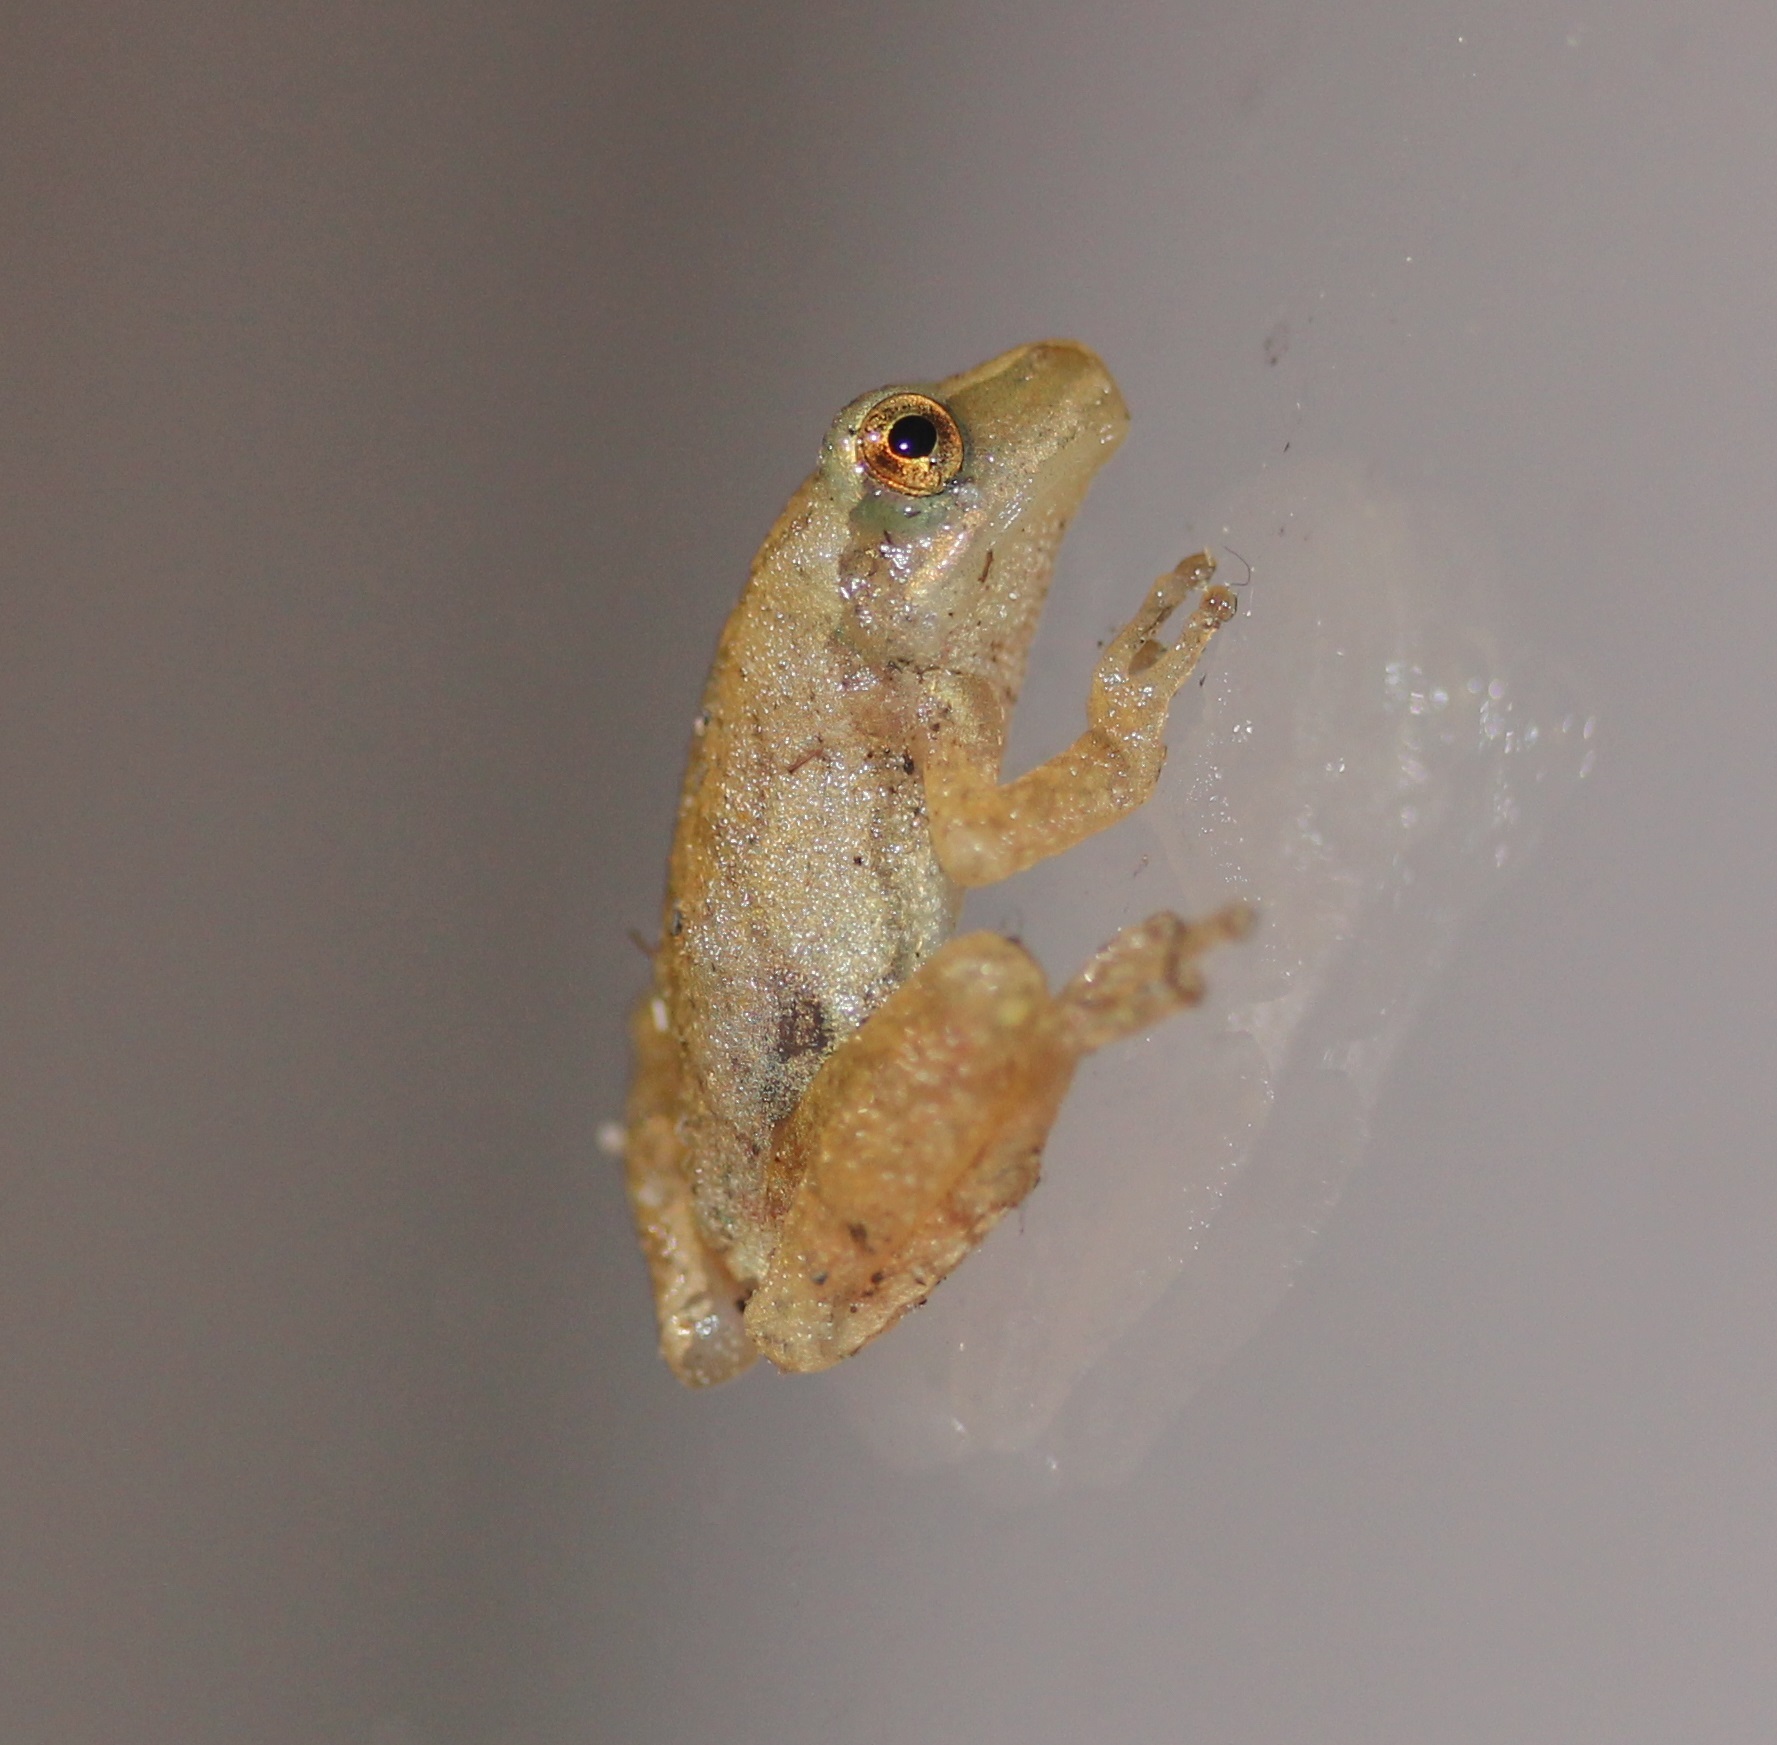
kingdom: Animalia
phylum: Chordata
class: Amphibia
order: Anura
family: Hylidae
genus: Pseudacris
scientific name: Pseudacris crucifer
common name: Spring peeper
